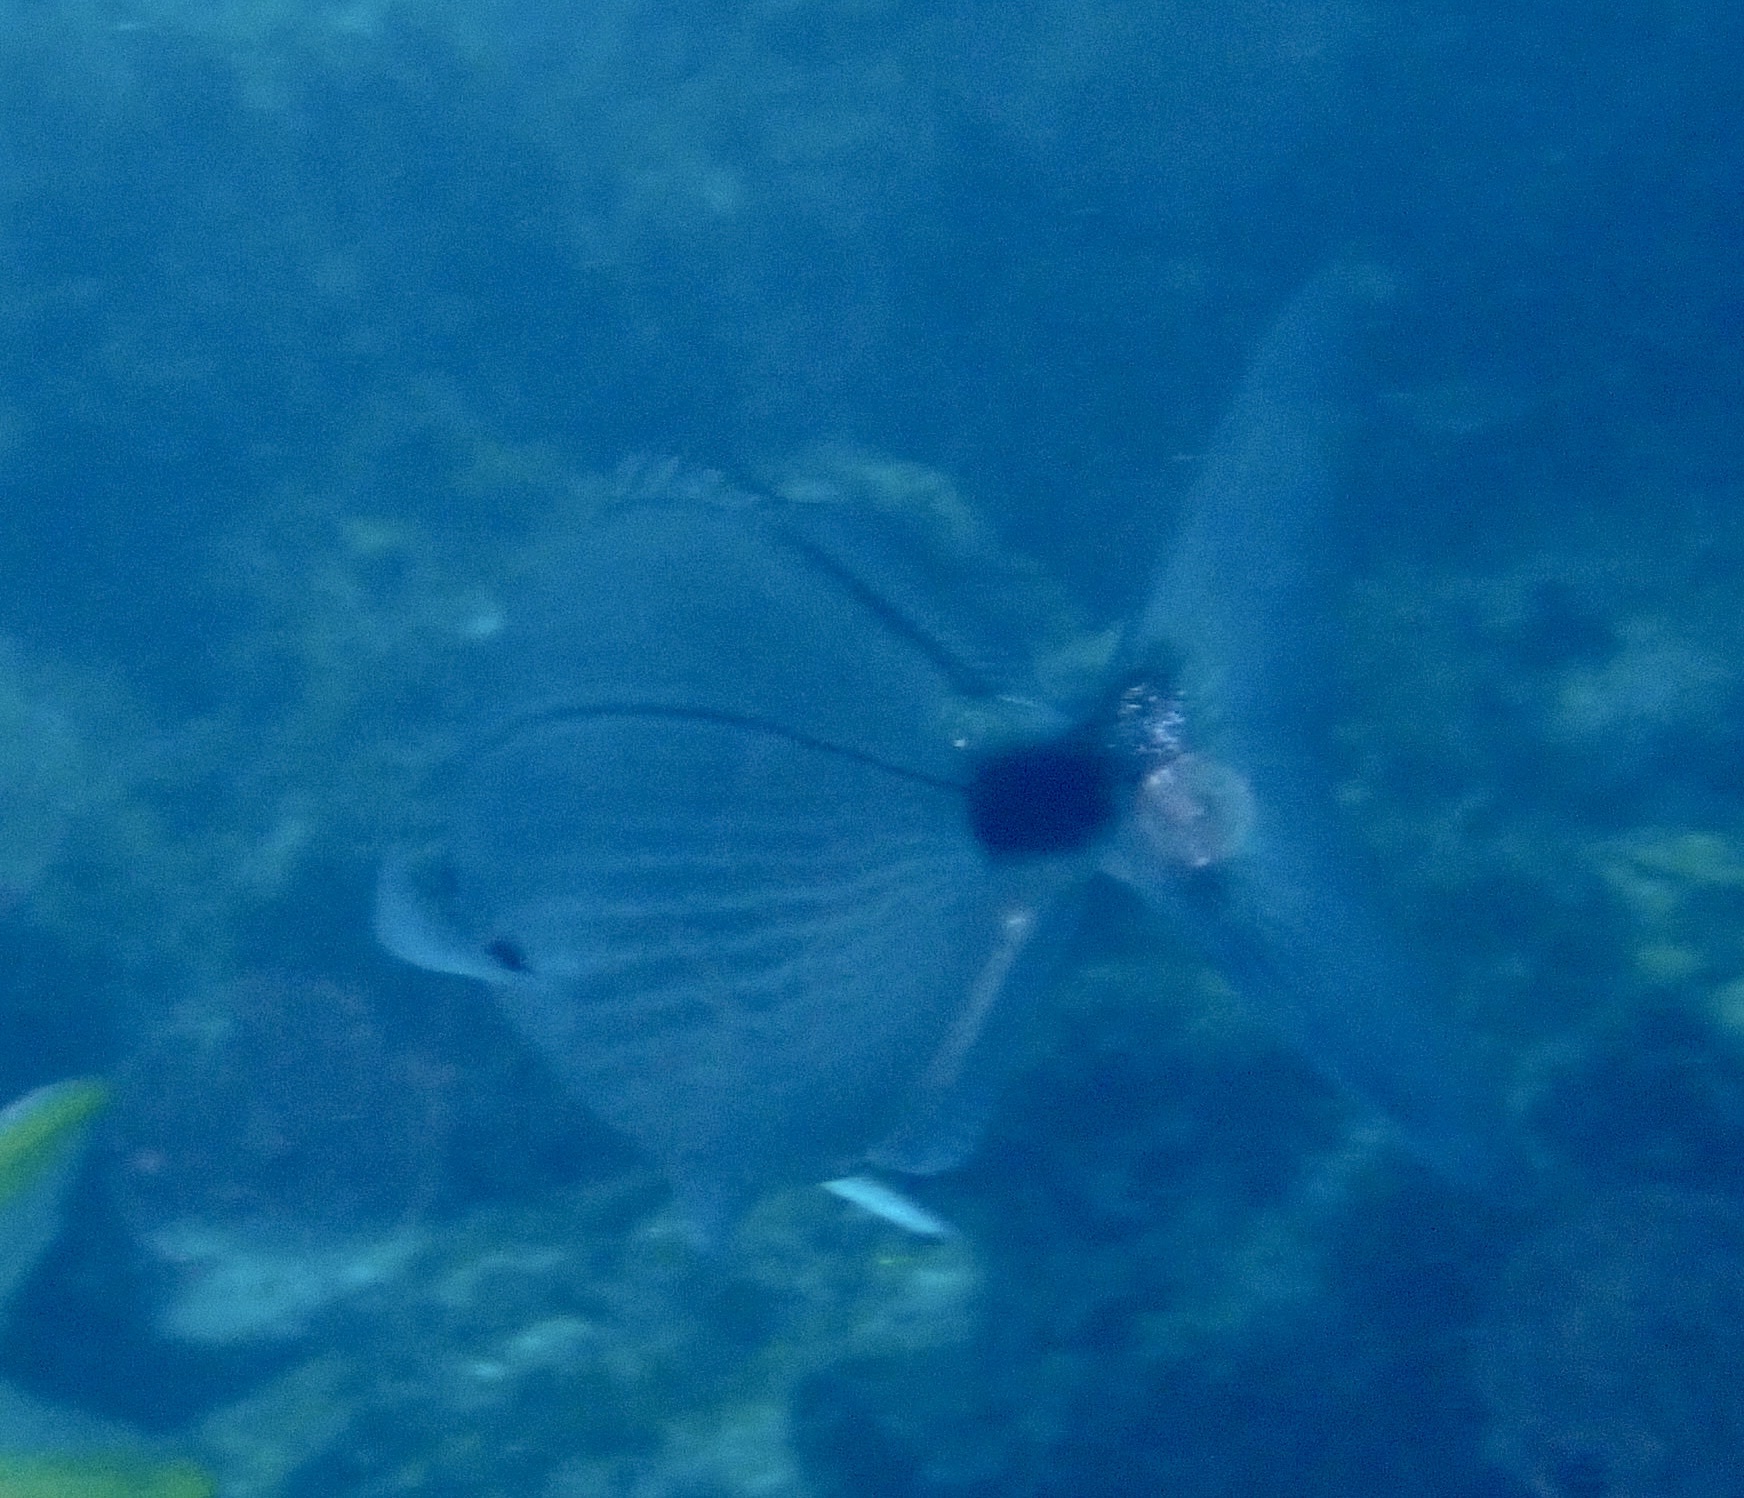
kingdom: Animalia
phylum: Chordata
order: Perciformes
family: Sparidae
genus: Spicara
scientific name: Spicara melanurus
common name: Blackspot picarel
